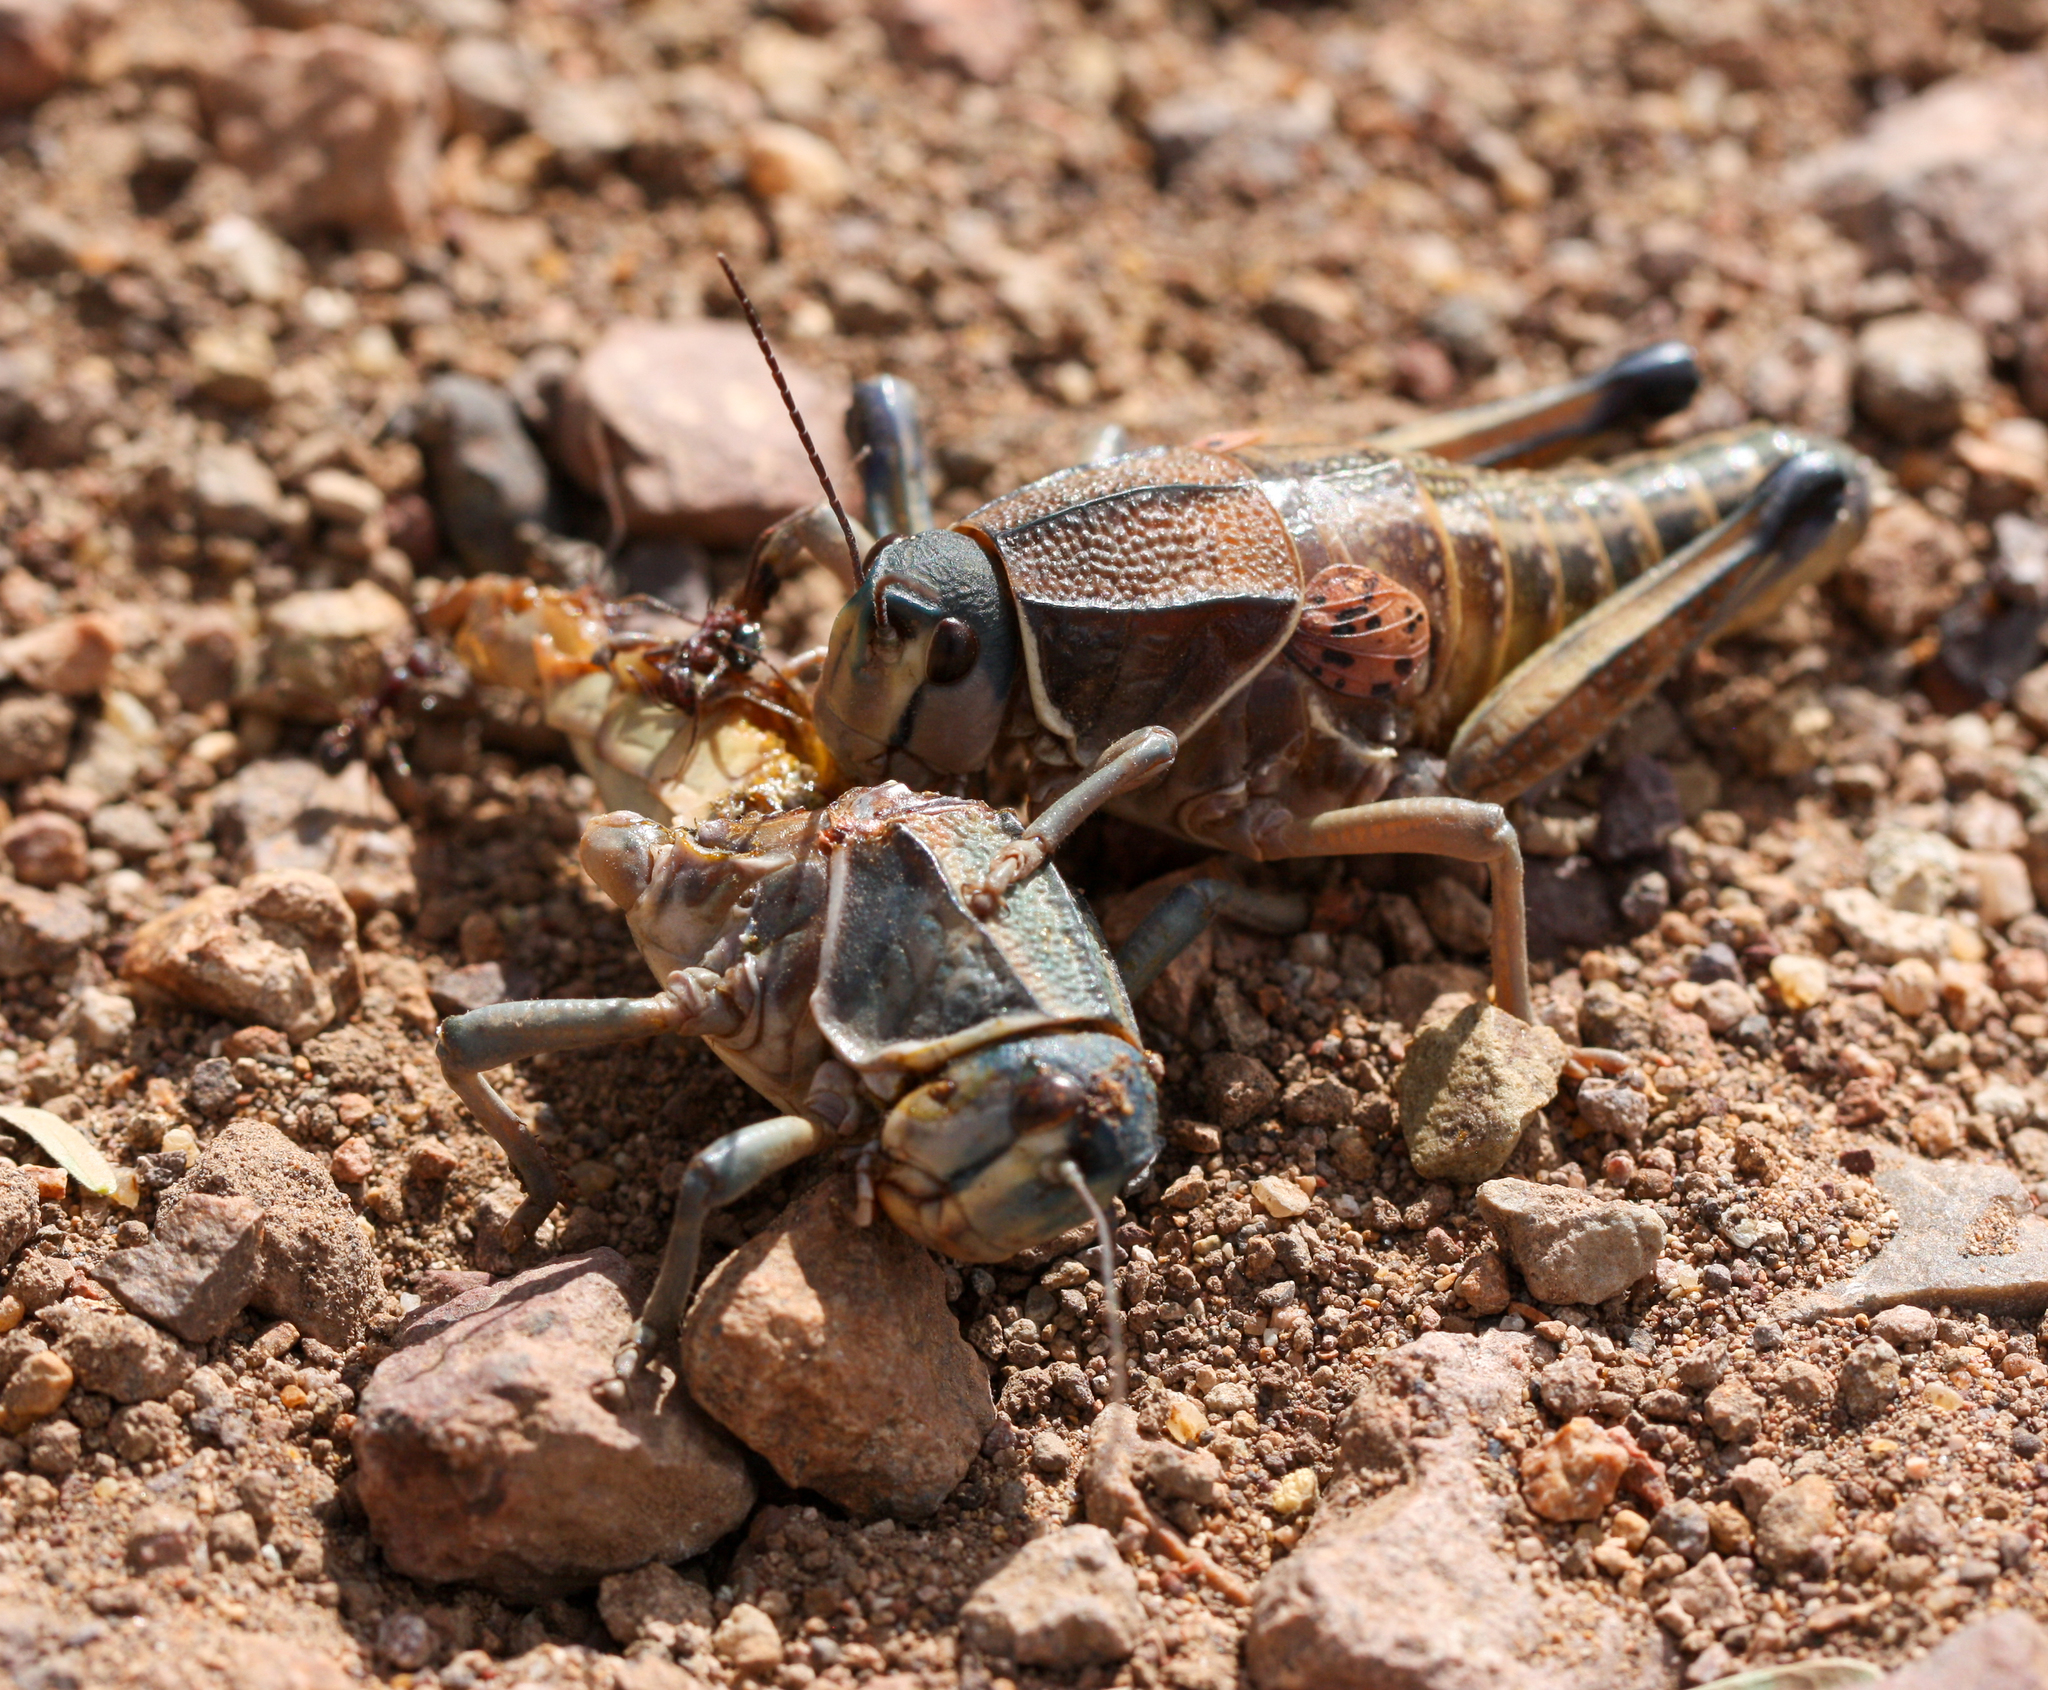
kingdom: Animalia
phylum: Arthropoda
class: Insecta
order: Orthoptera
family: Romaleidae
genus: Brachystola
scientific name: Brachystola magna
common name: Plains lubber grasshopper
